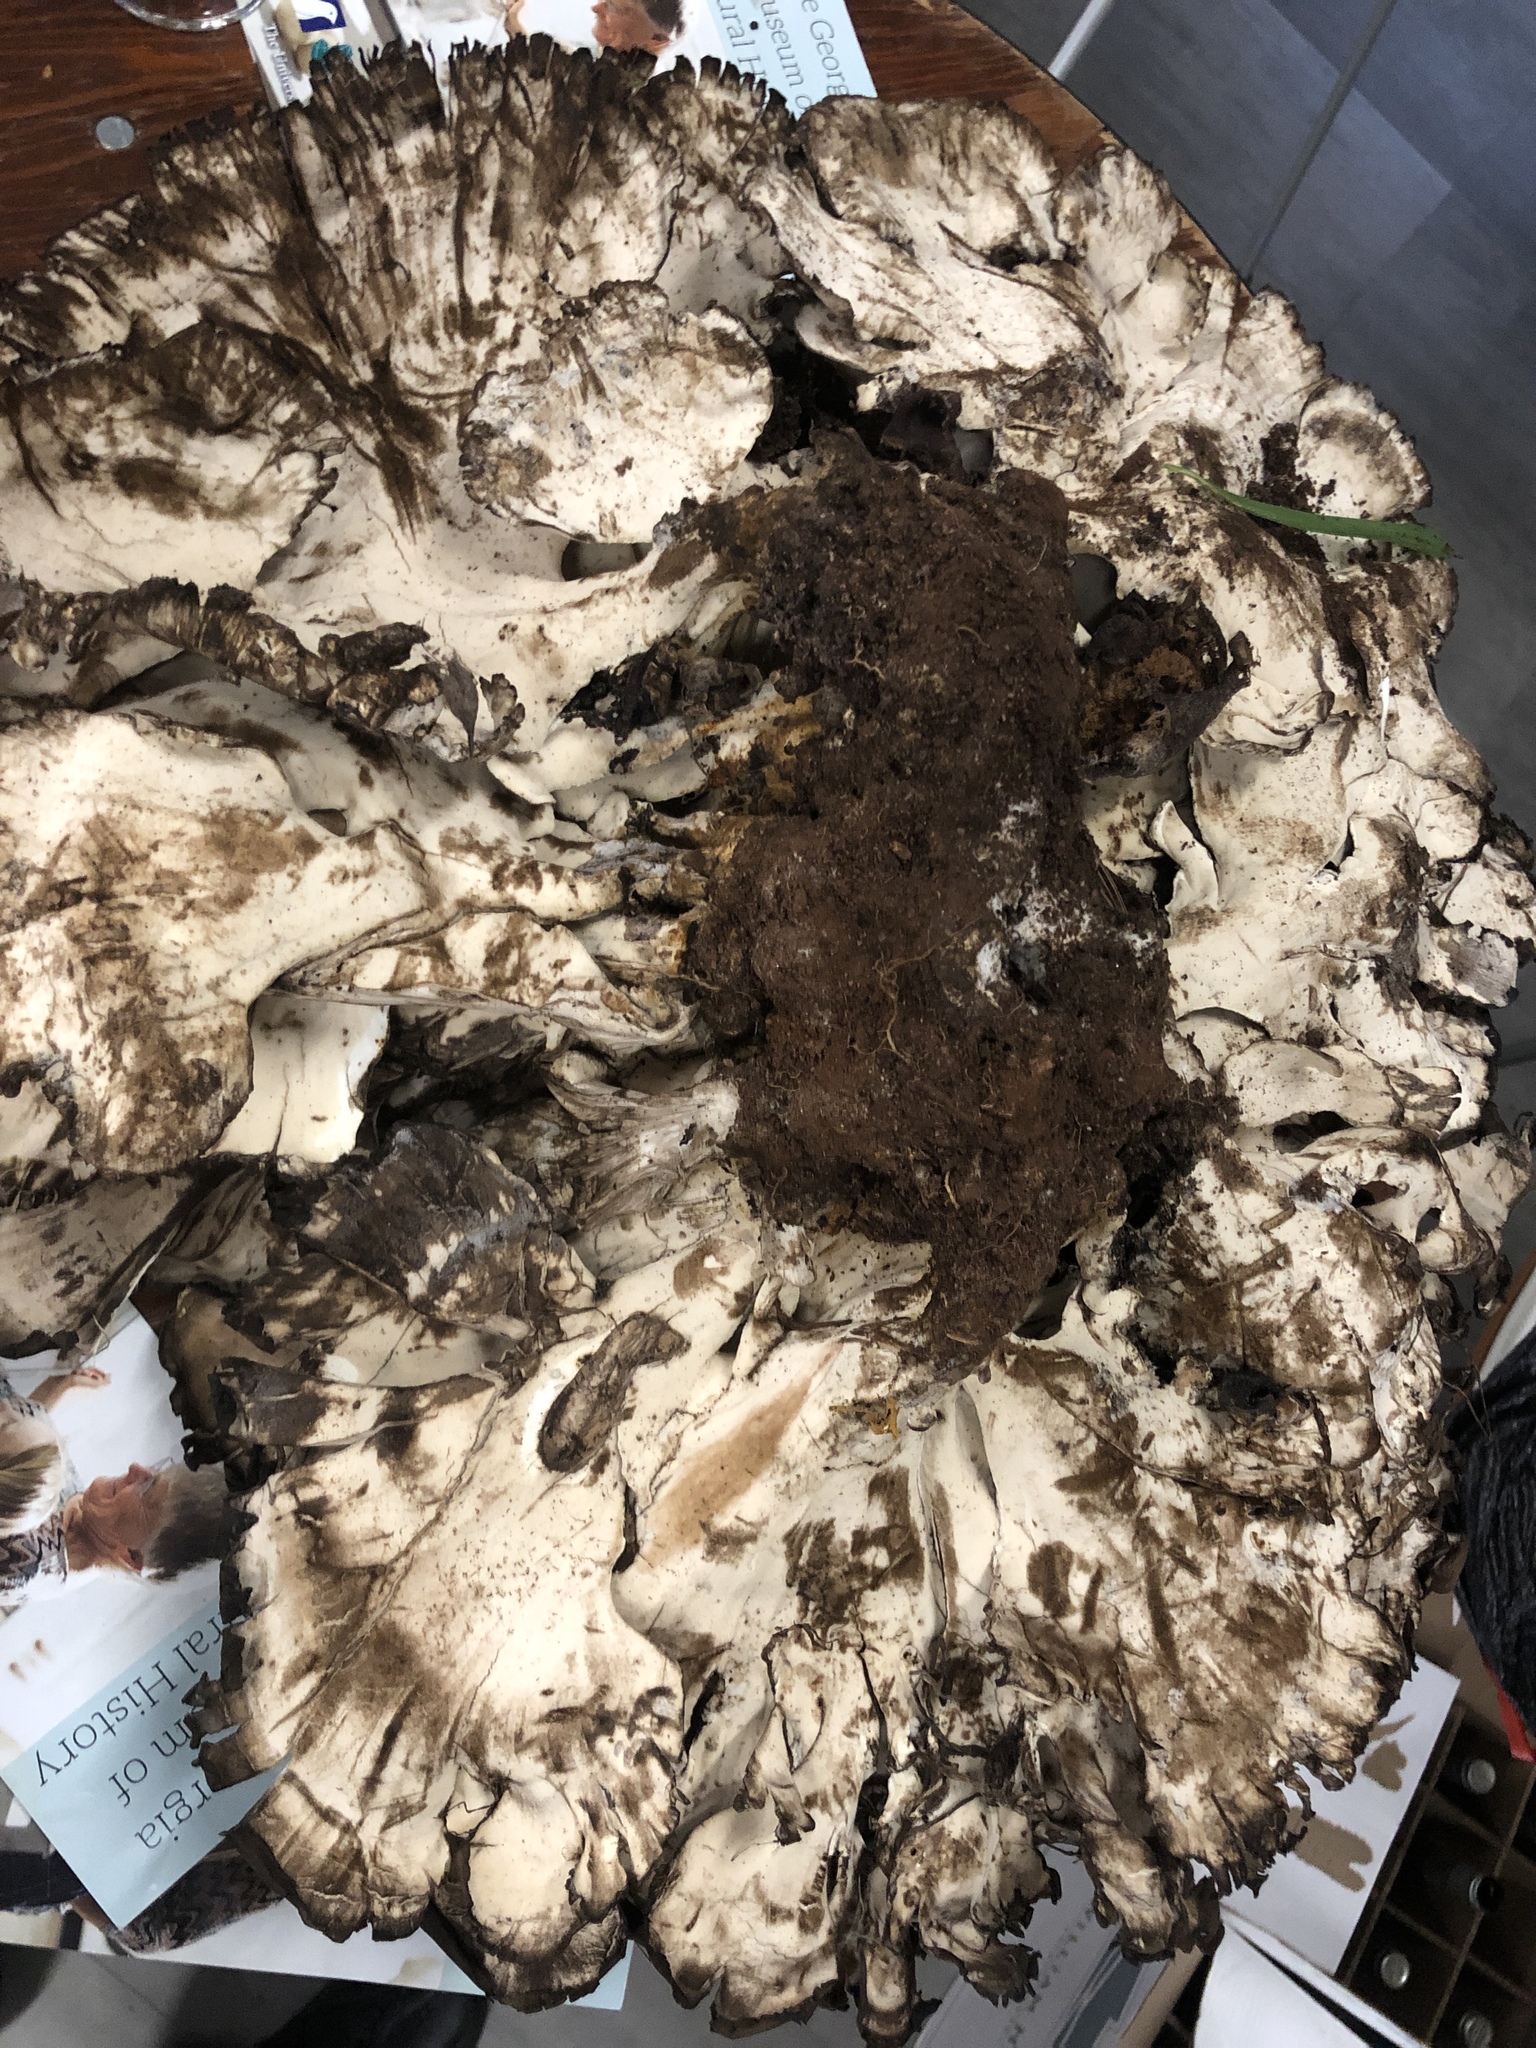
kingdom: Fungi
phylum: Basidiomycota
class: Agaricomycetes
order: Polyporales
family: Meripilaceae
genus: Meripilus
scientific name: Meripilus sumstinei
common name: Black-staining polypore
